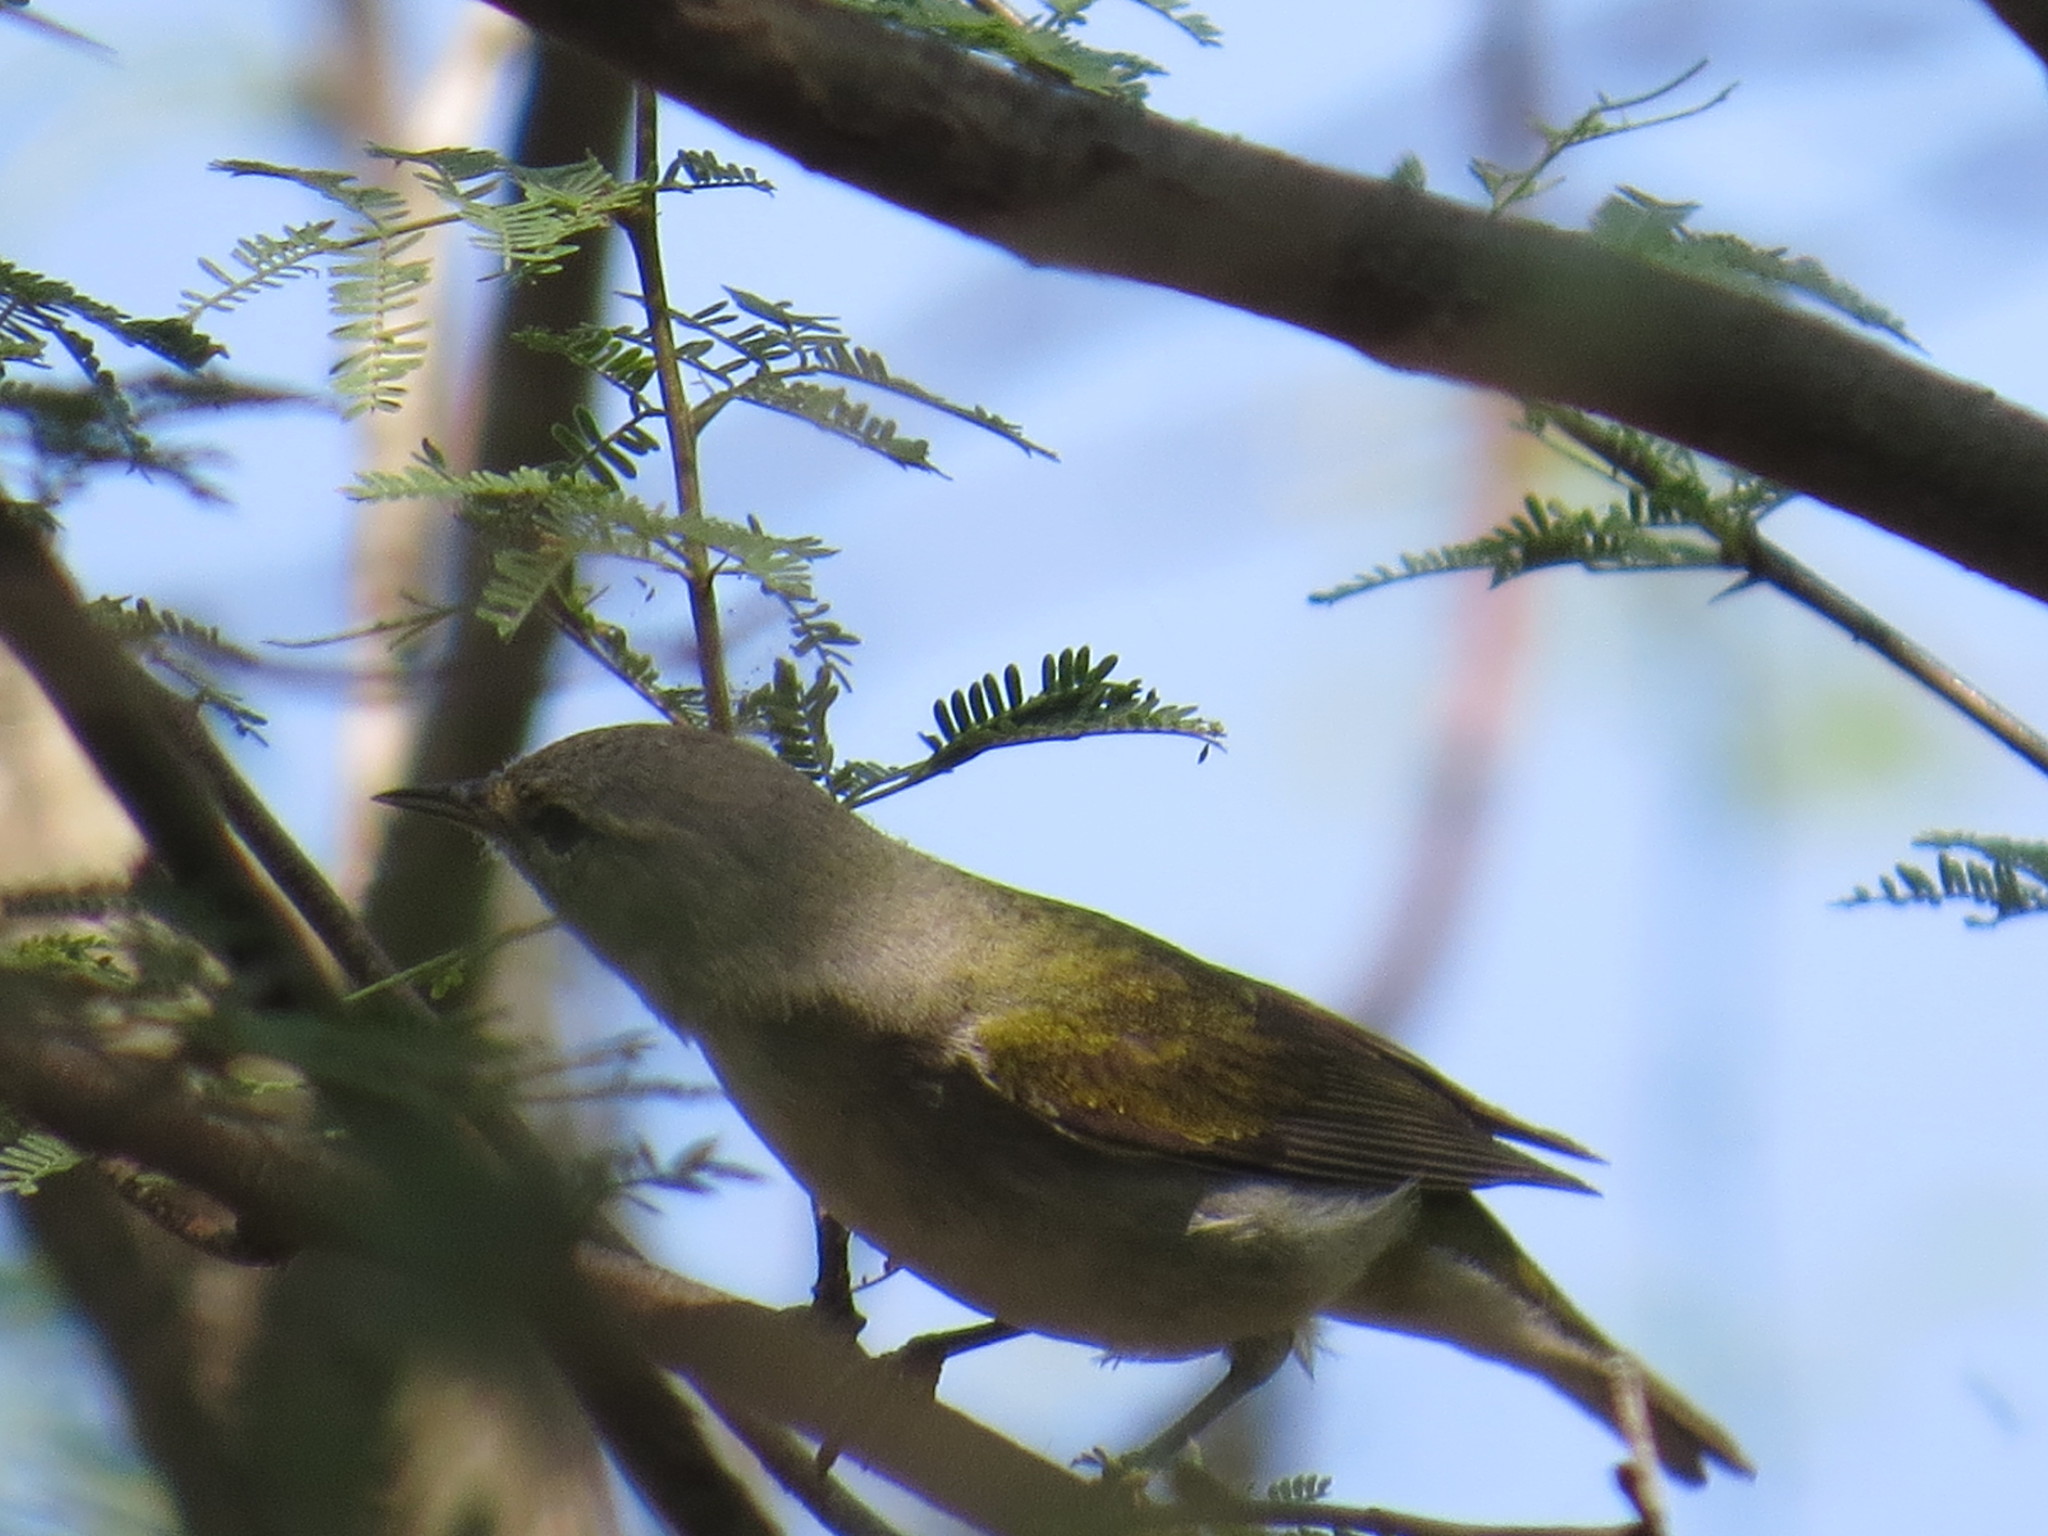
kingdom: Animalia
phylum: Chordata
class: Aves
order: Passeriformes
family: Parulidae
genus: Leiothlypis
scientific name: Leiothlypis peregrina
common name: Tennessee warbler
